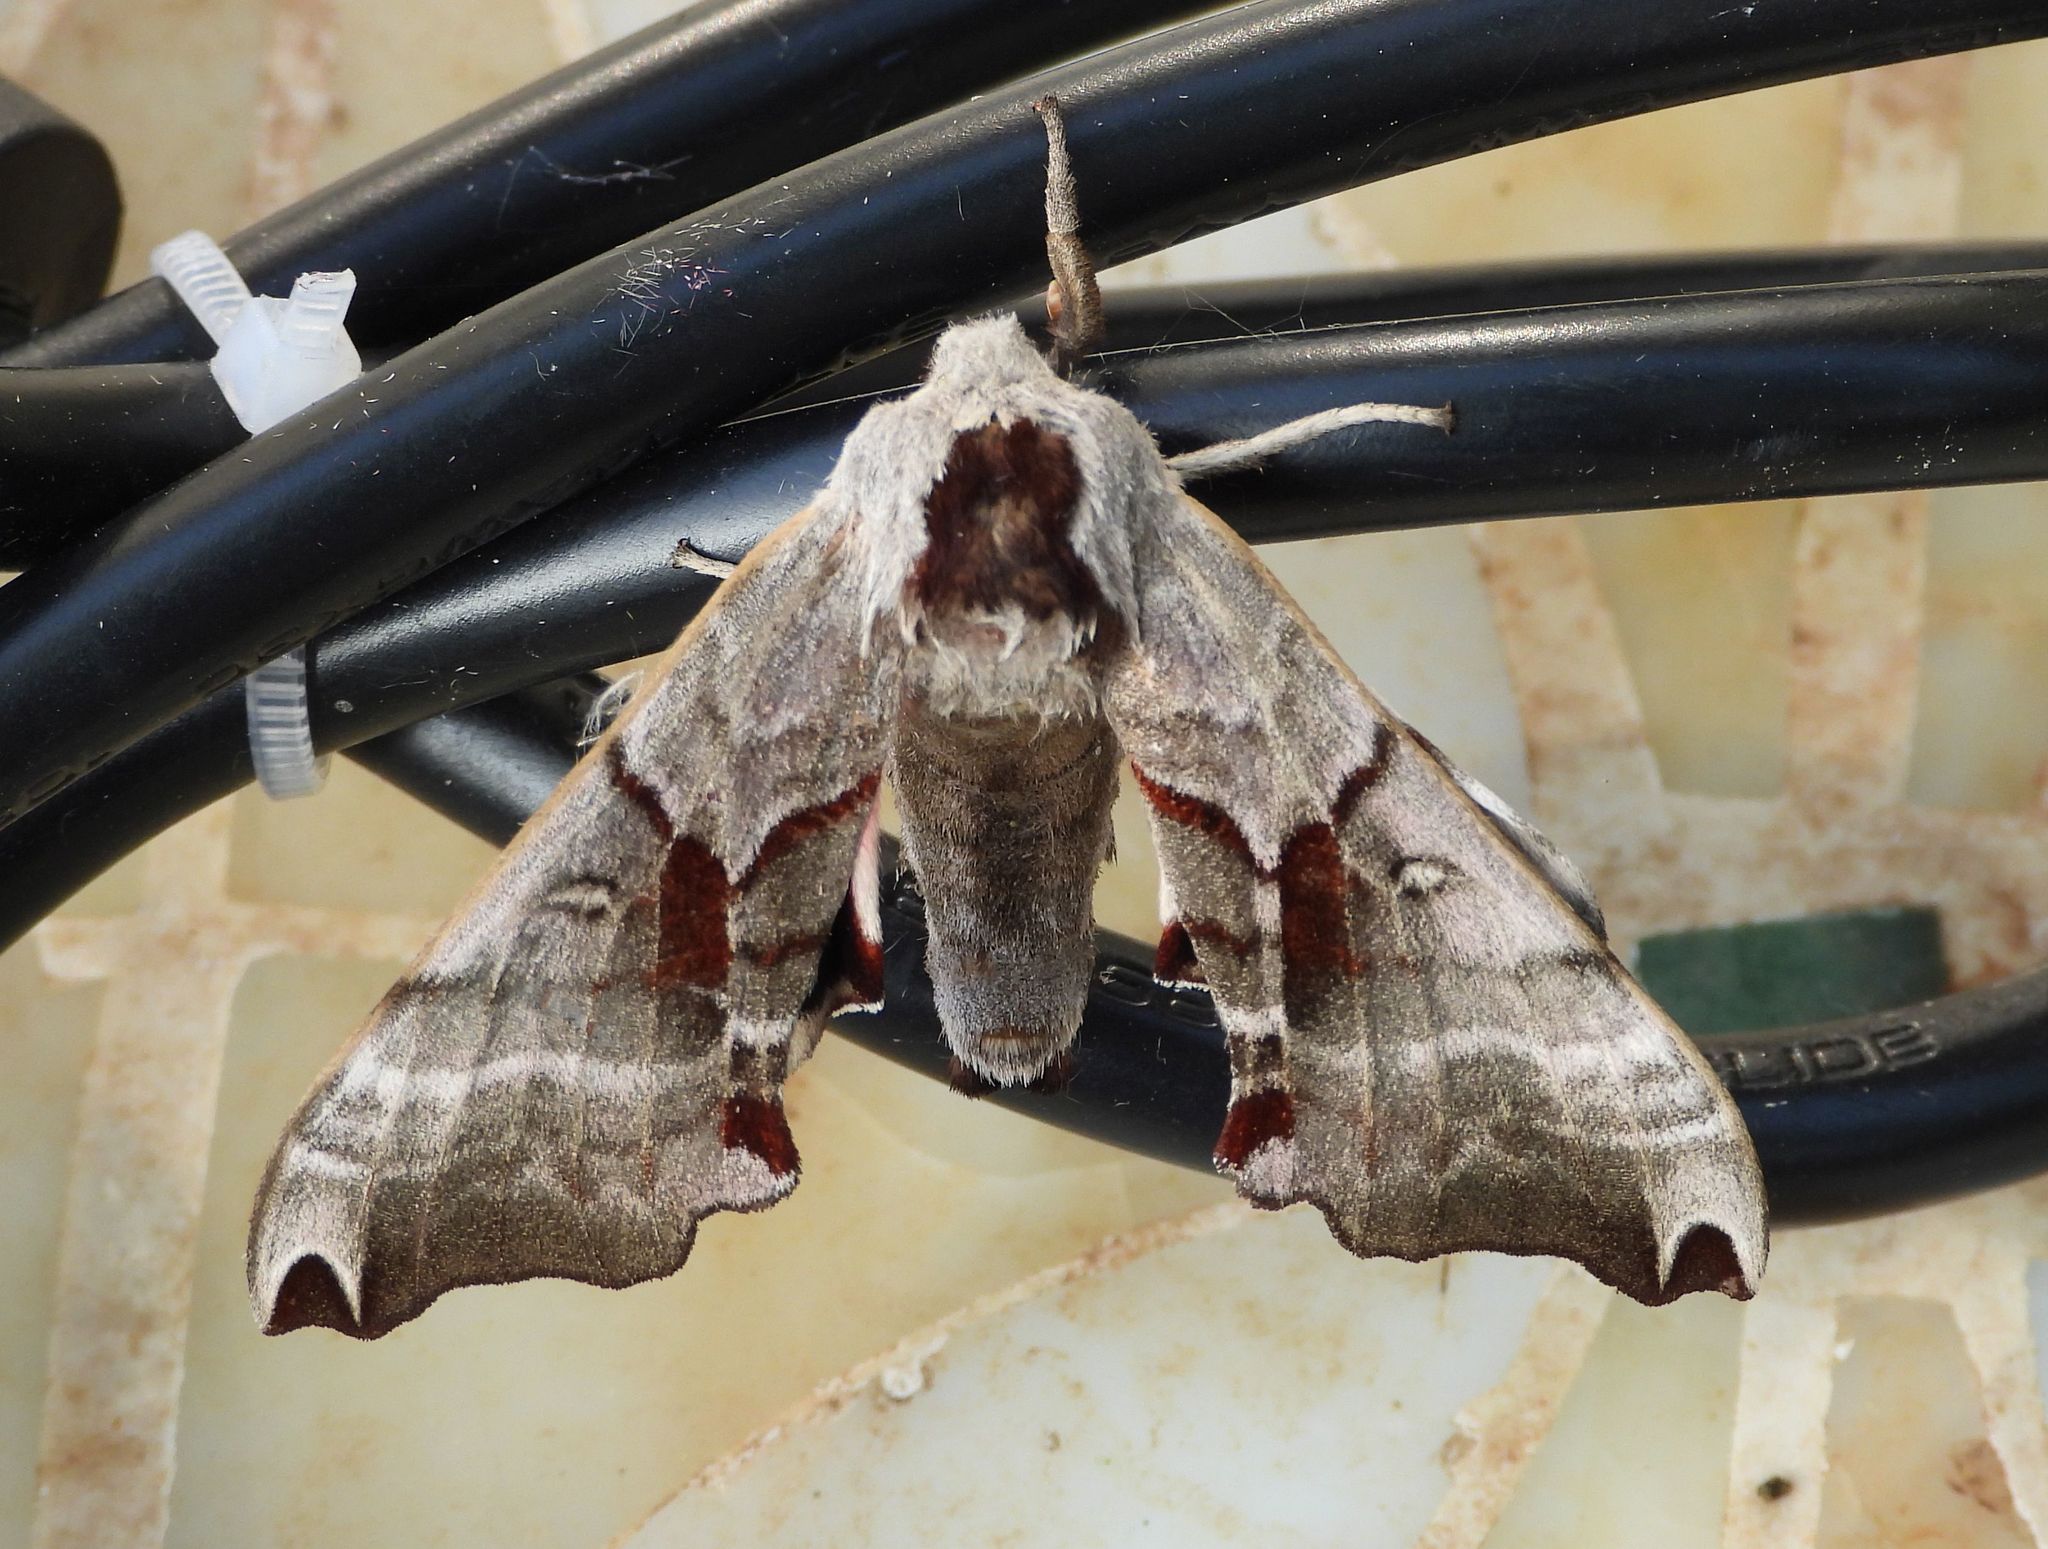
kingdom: Animalia
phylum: Arthropoda
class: Insecta
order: Lepidoptera
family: Sphingidae
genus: Smerinthus
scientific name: Smerinthus jamaicensis
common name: Twin spotted sphinx
